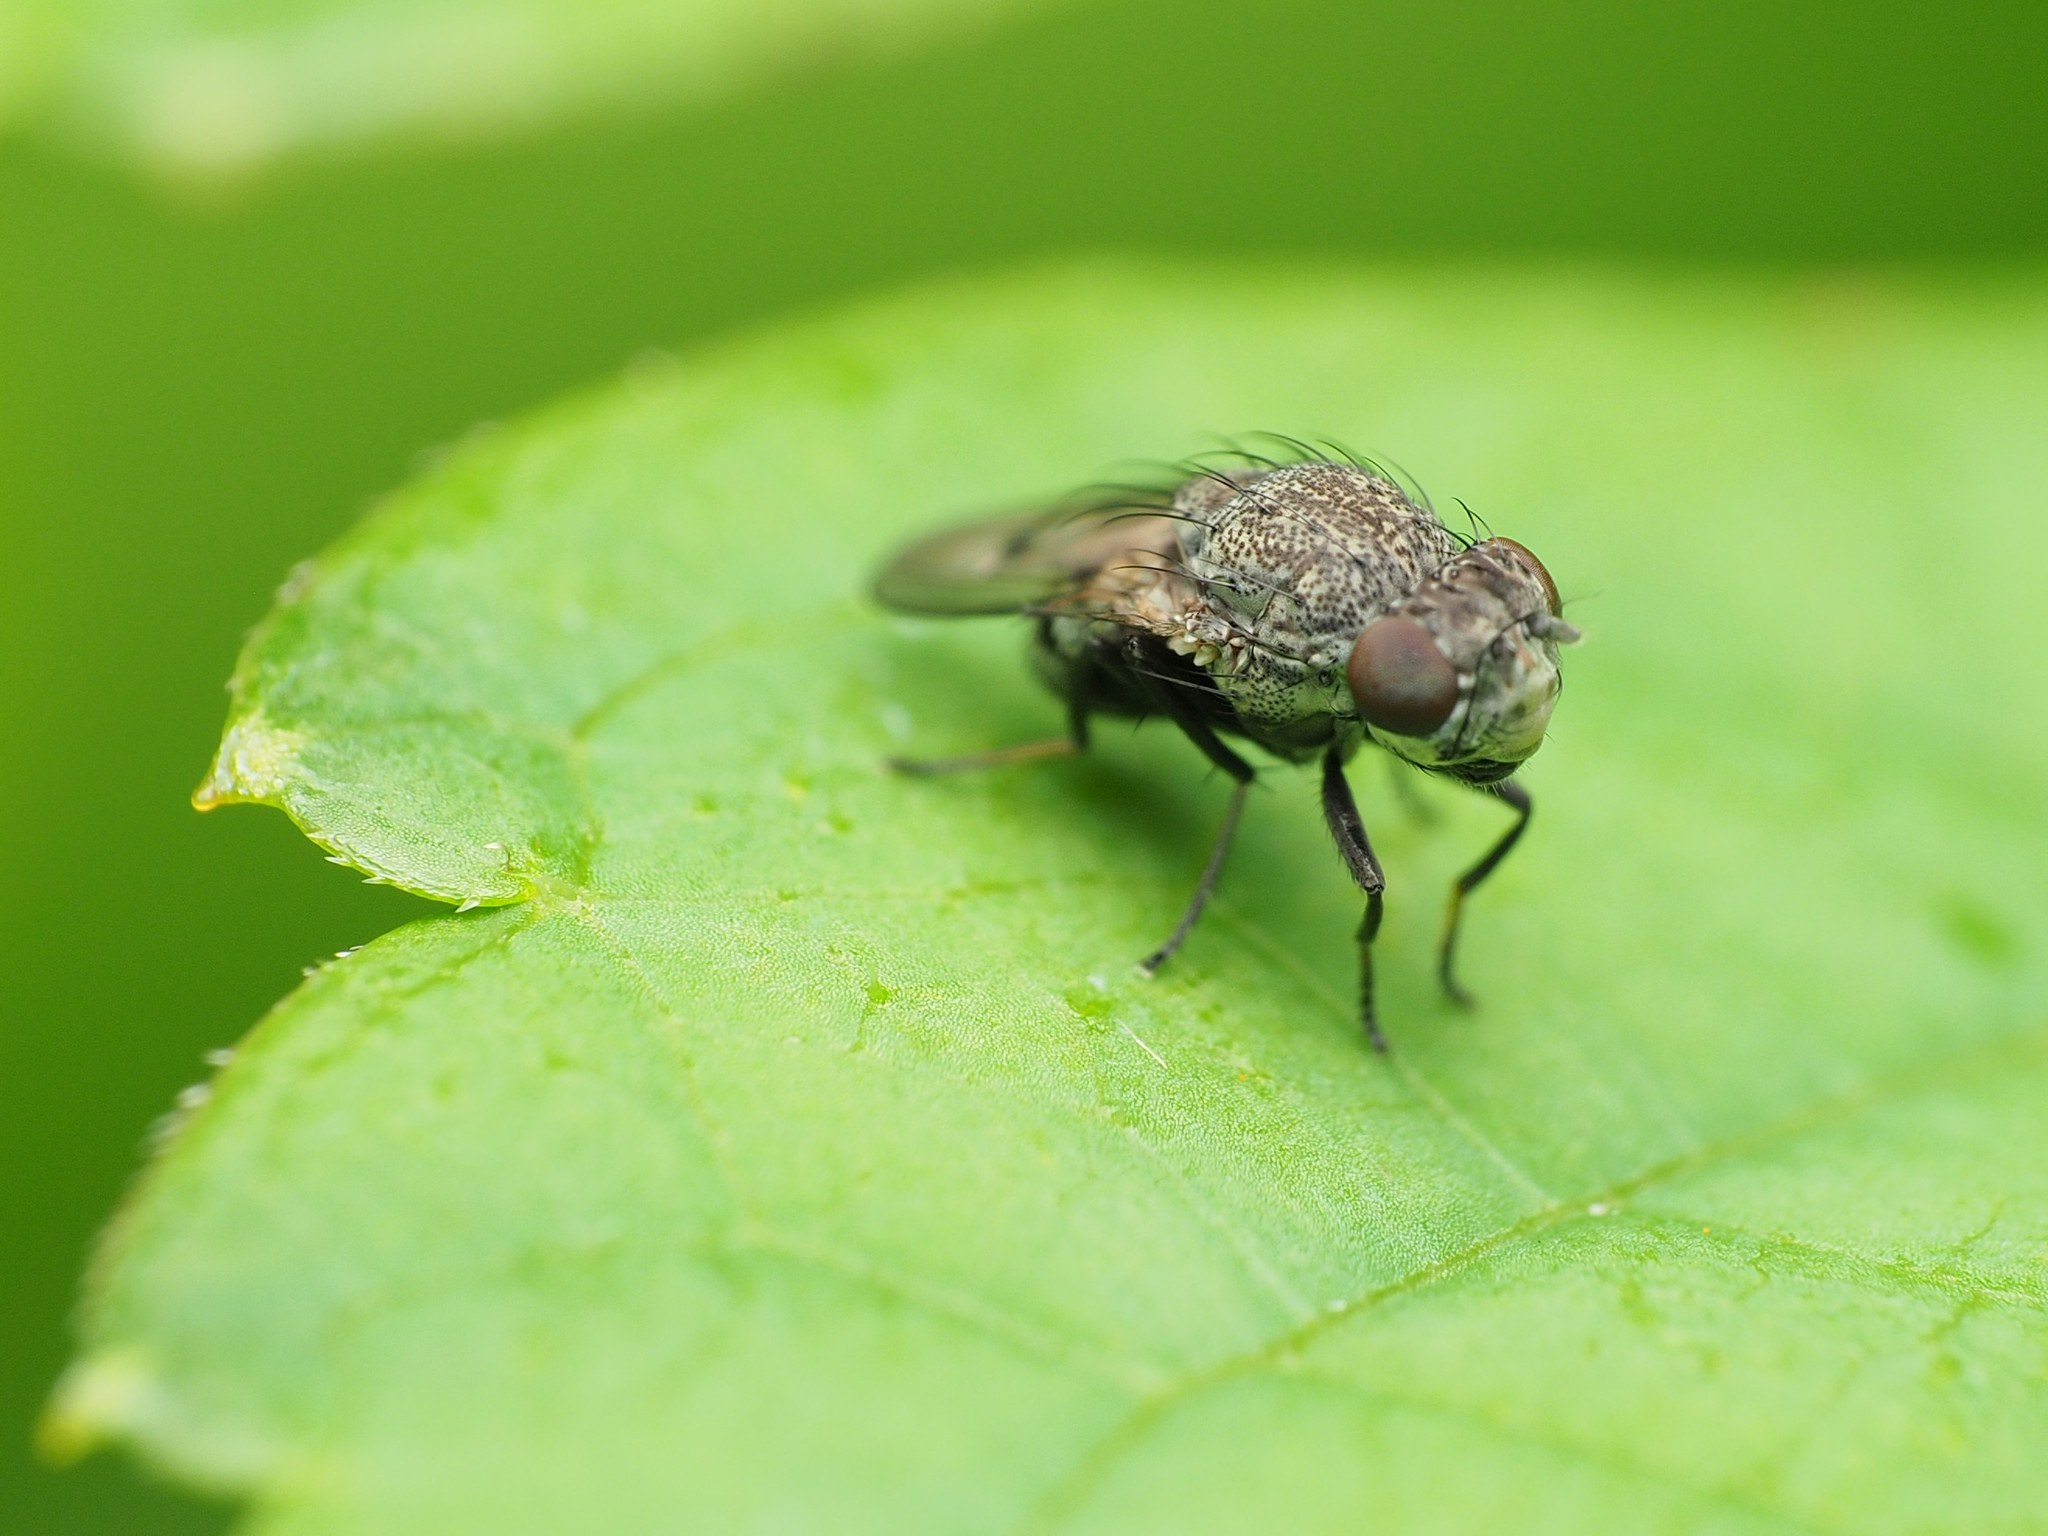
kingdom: Animalia
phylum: Arthropoda
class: Insecta
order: Diptera
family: Ephydridae
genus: Paralimna
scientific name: Paralimna punctipennis
